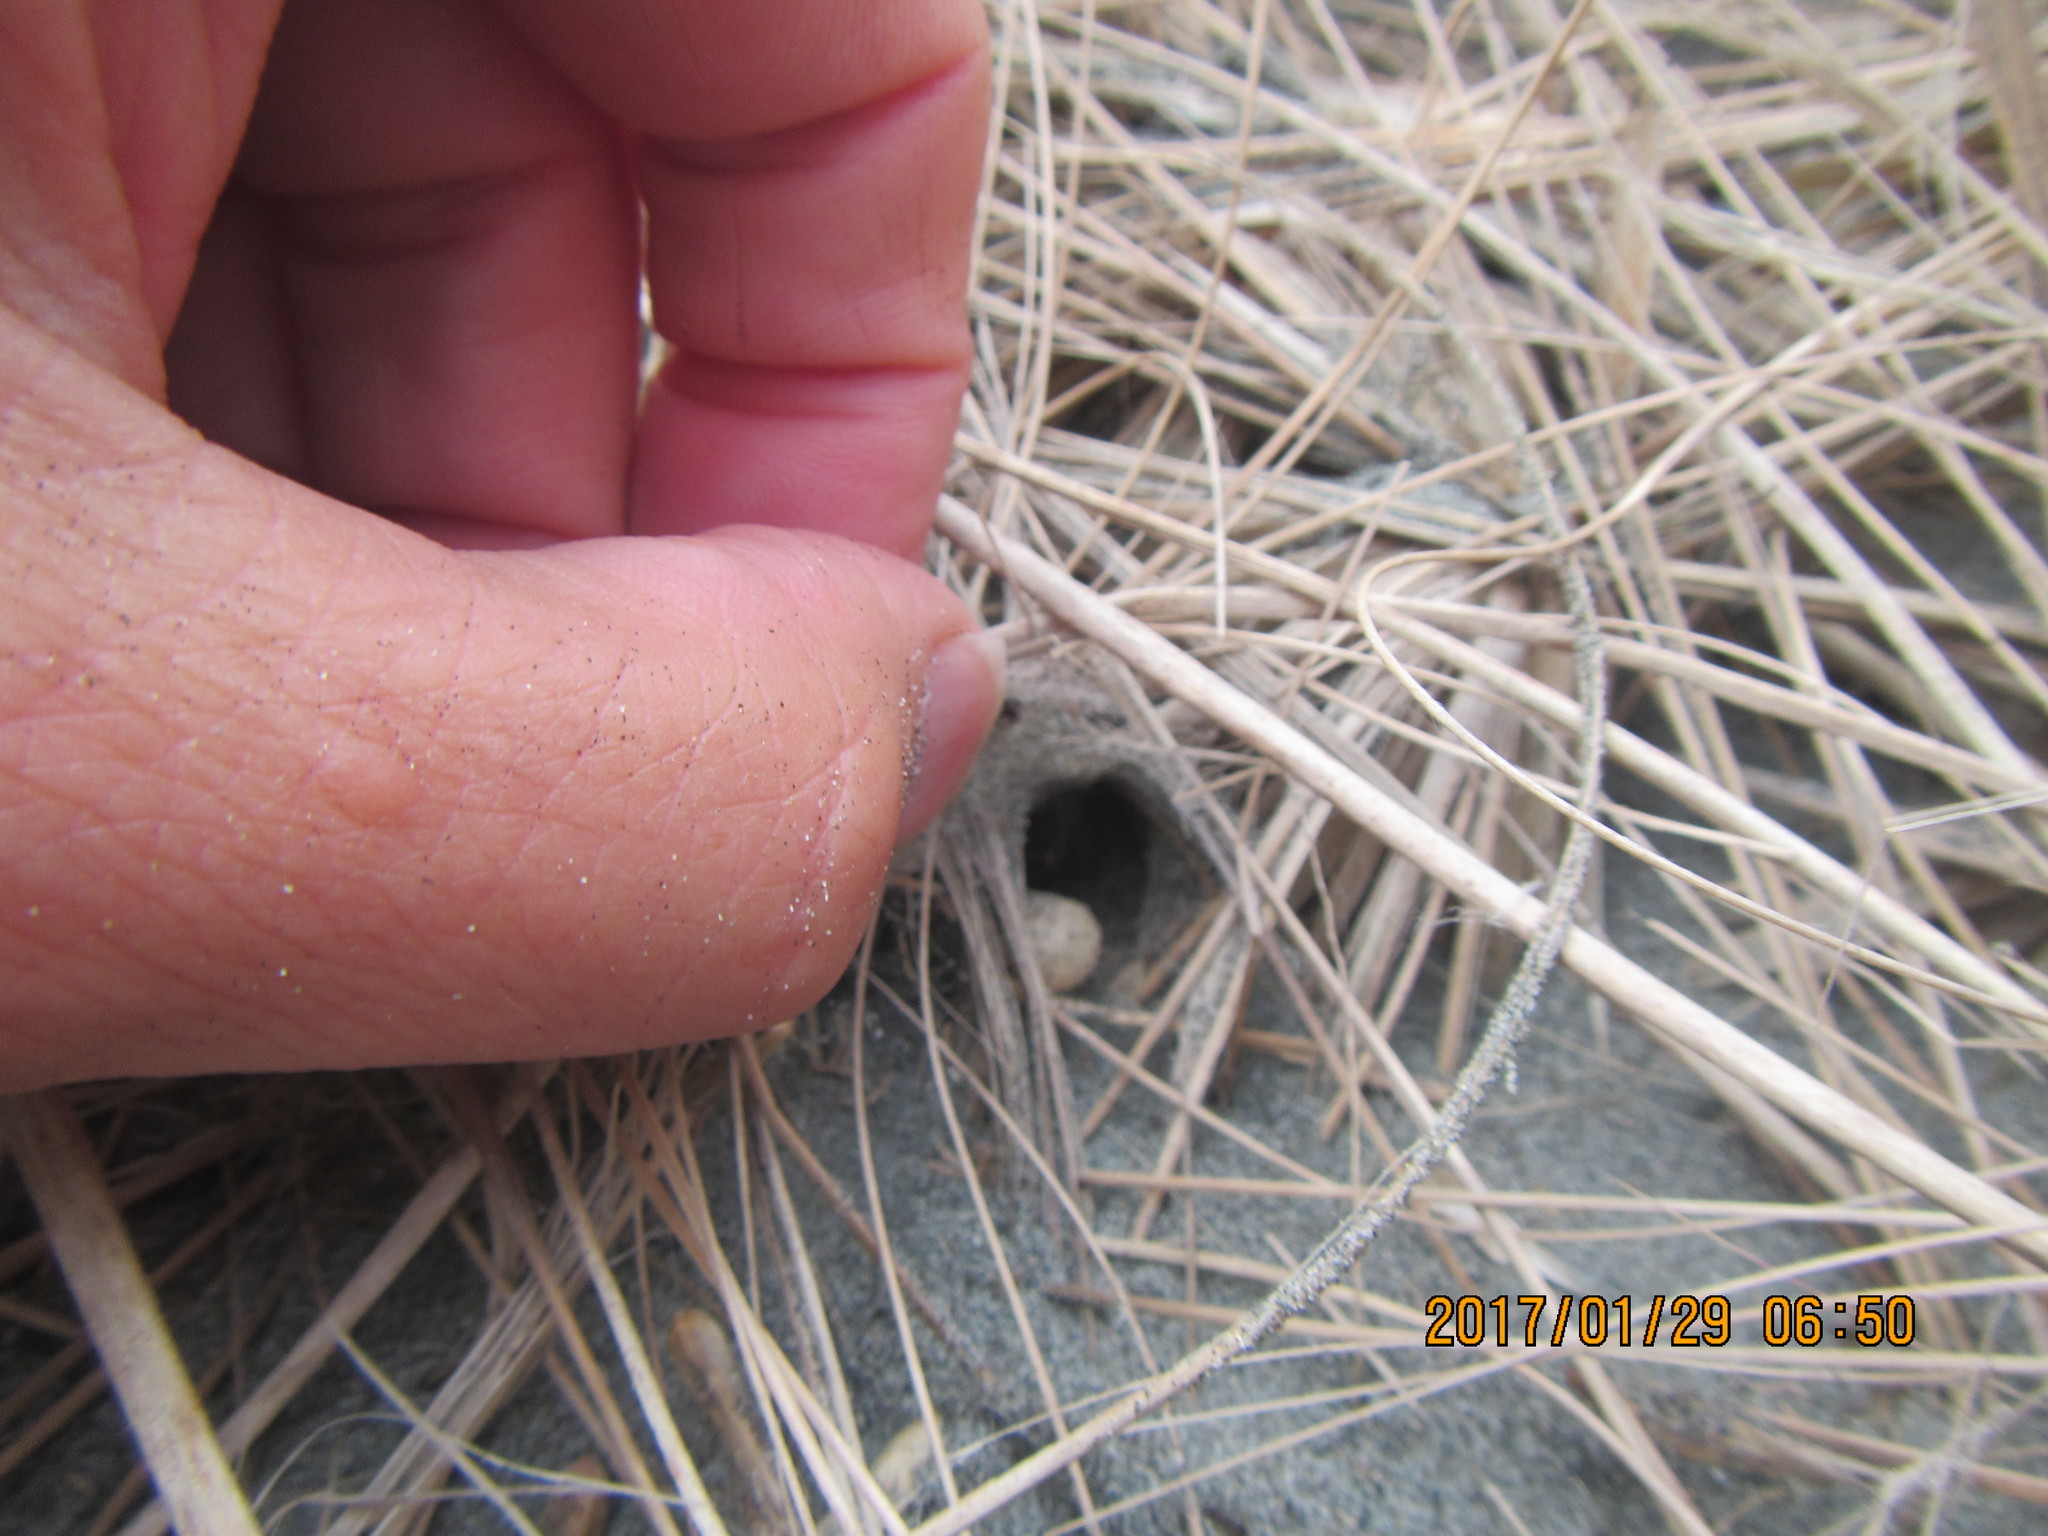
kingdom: Animalia
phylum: Arthropoda
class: Arachnida
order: Araneae
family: Theridiidae
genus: Latrodectus
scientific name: Latrodectus katipo
